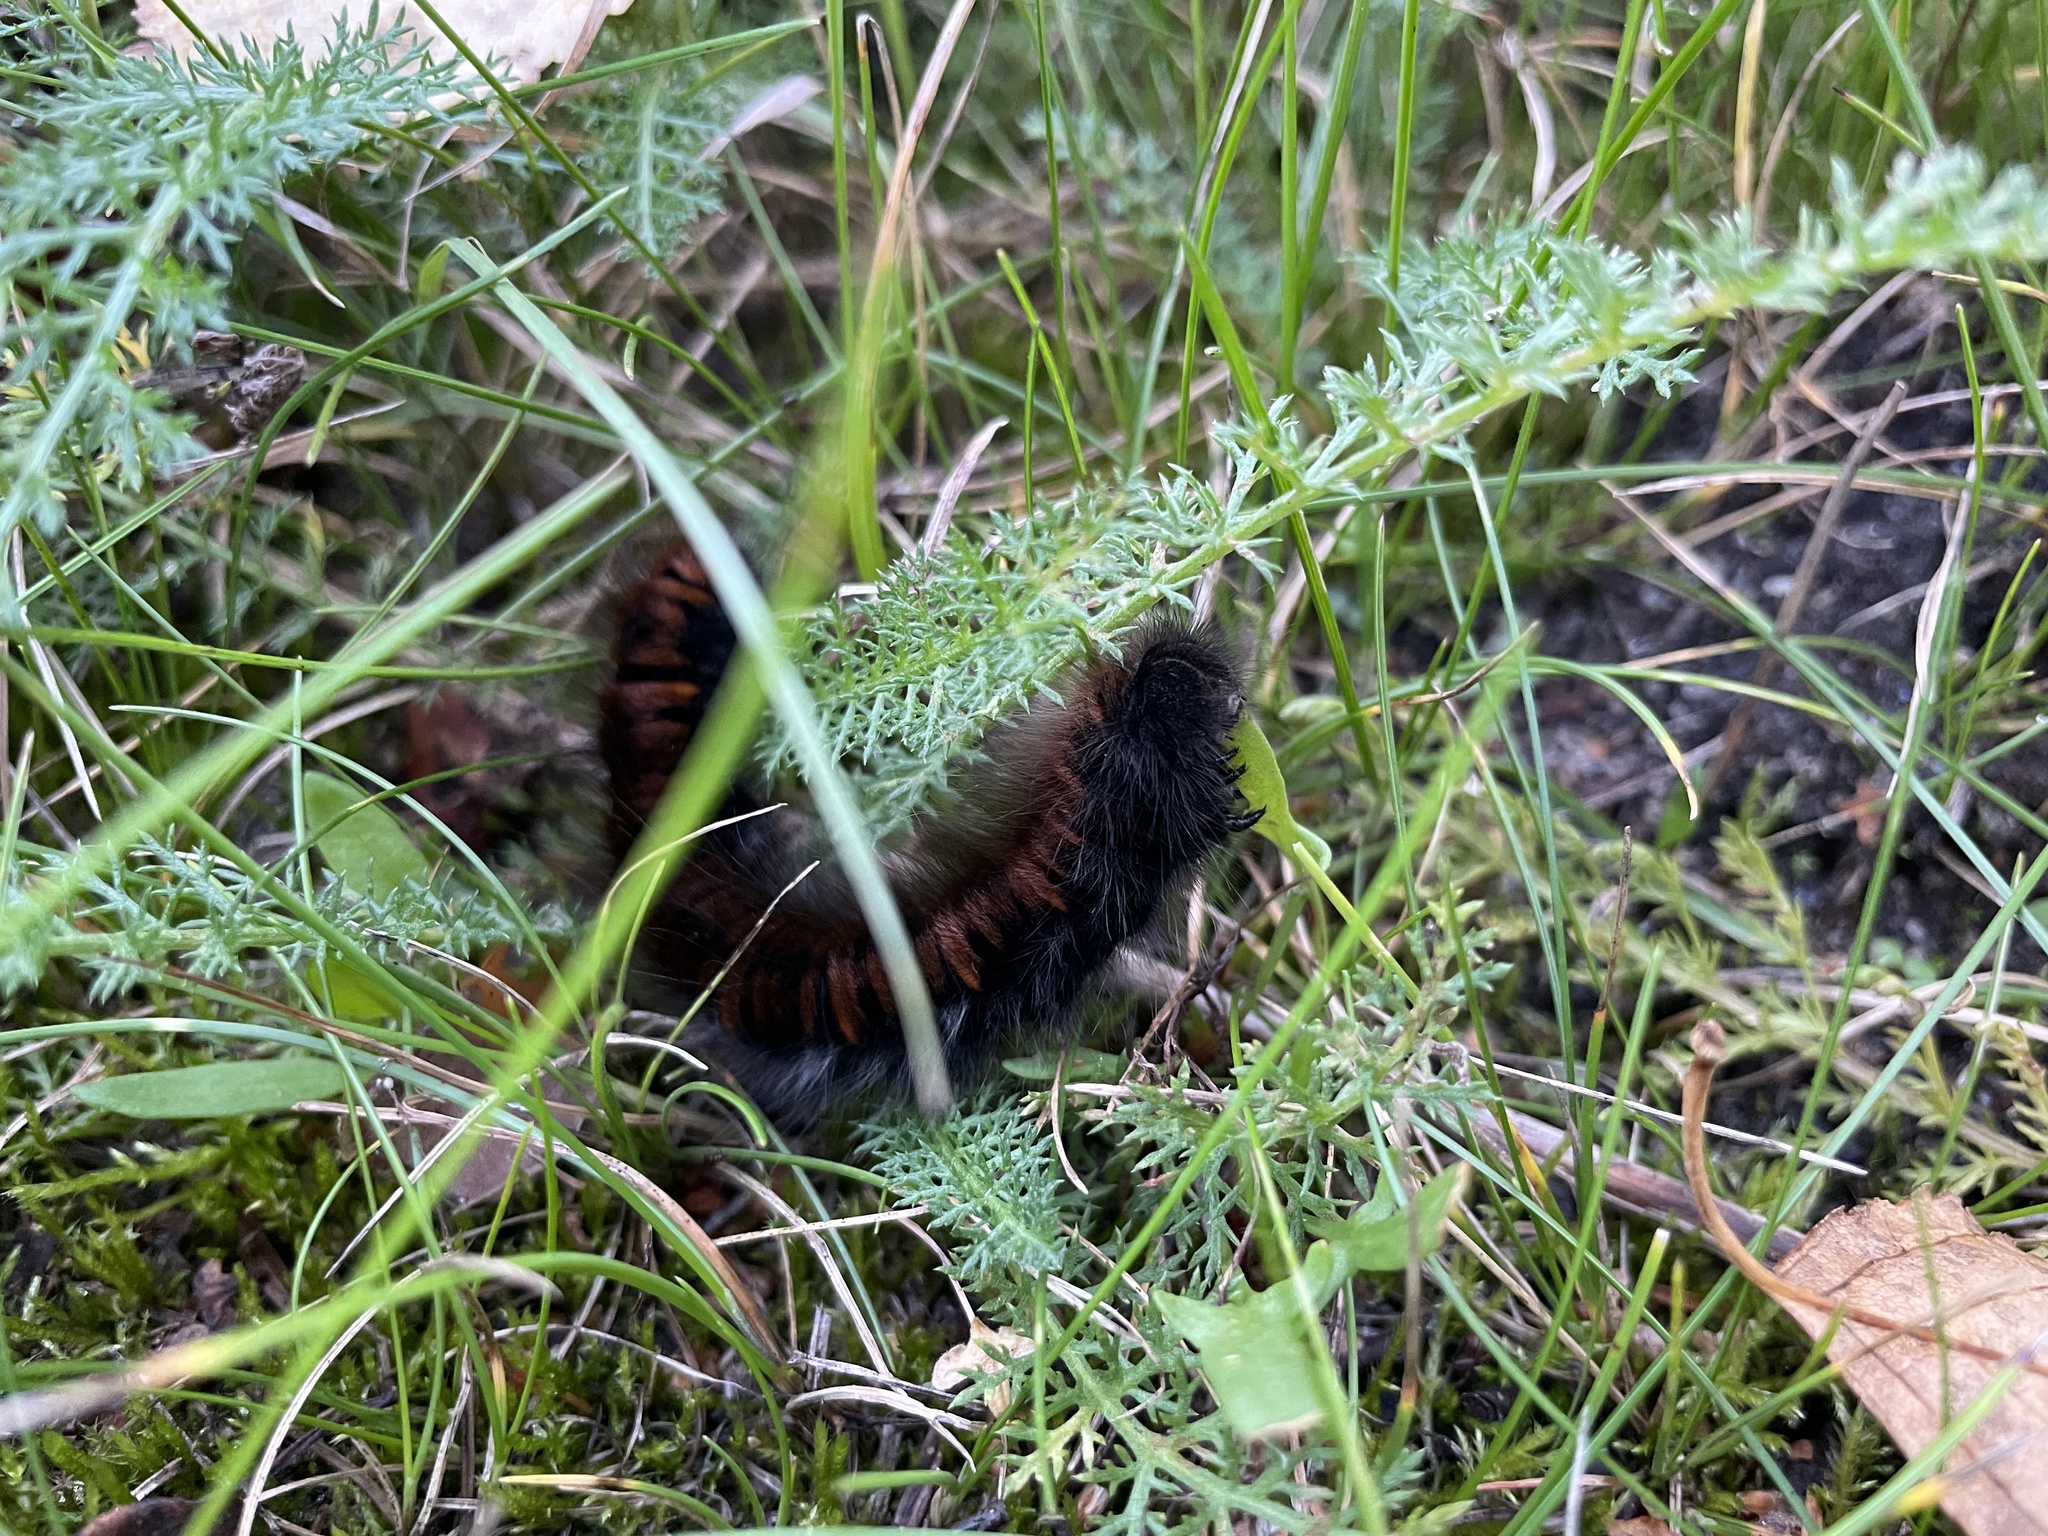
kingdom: Animalia
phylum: Arthropoda
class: Insecta
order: Lepidoptera
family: Lasiocampidae
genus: Macrothylacia
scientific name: Macrothylacia rubi
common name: Fox moth
